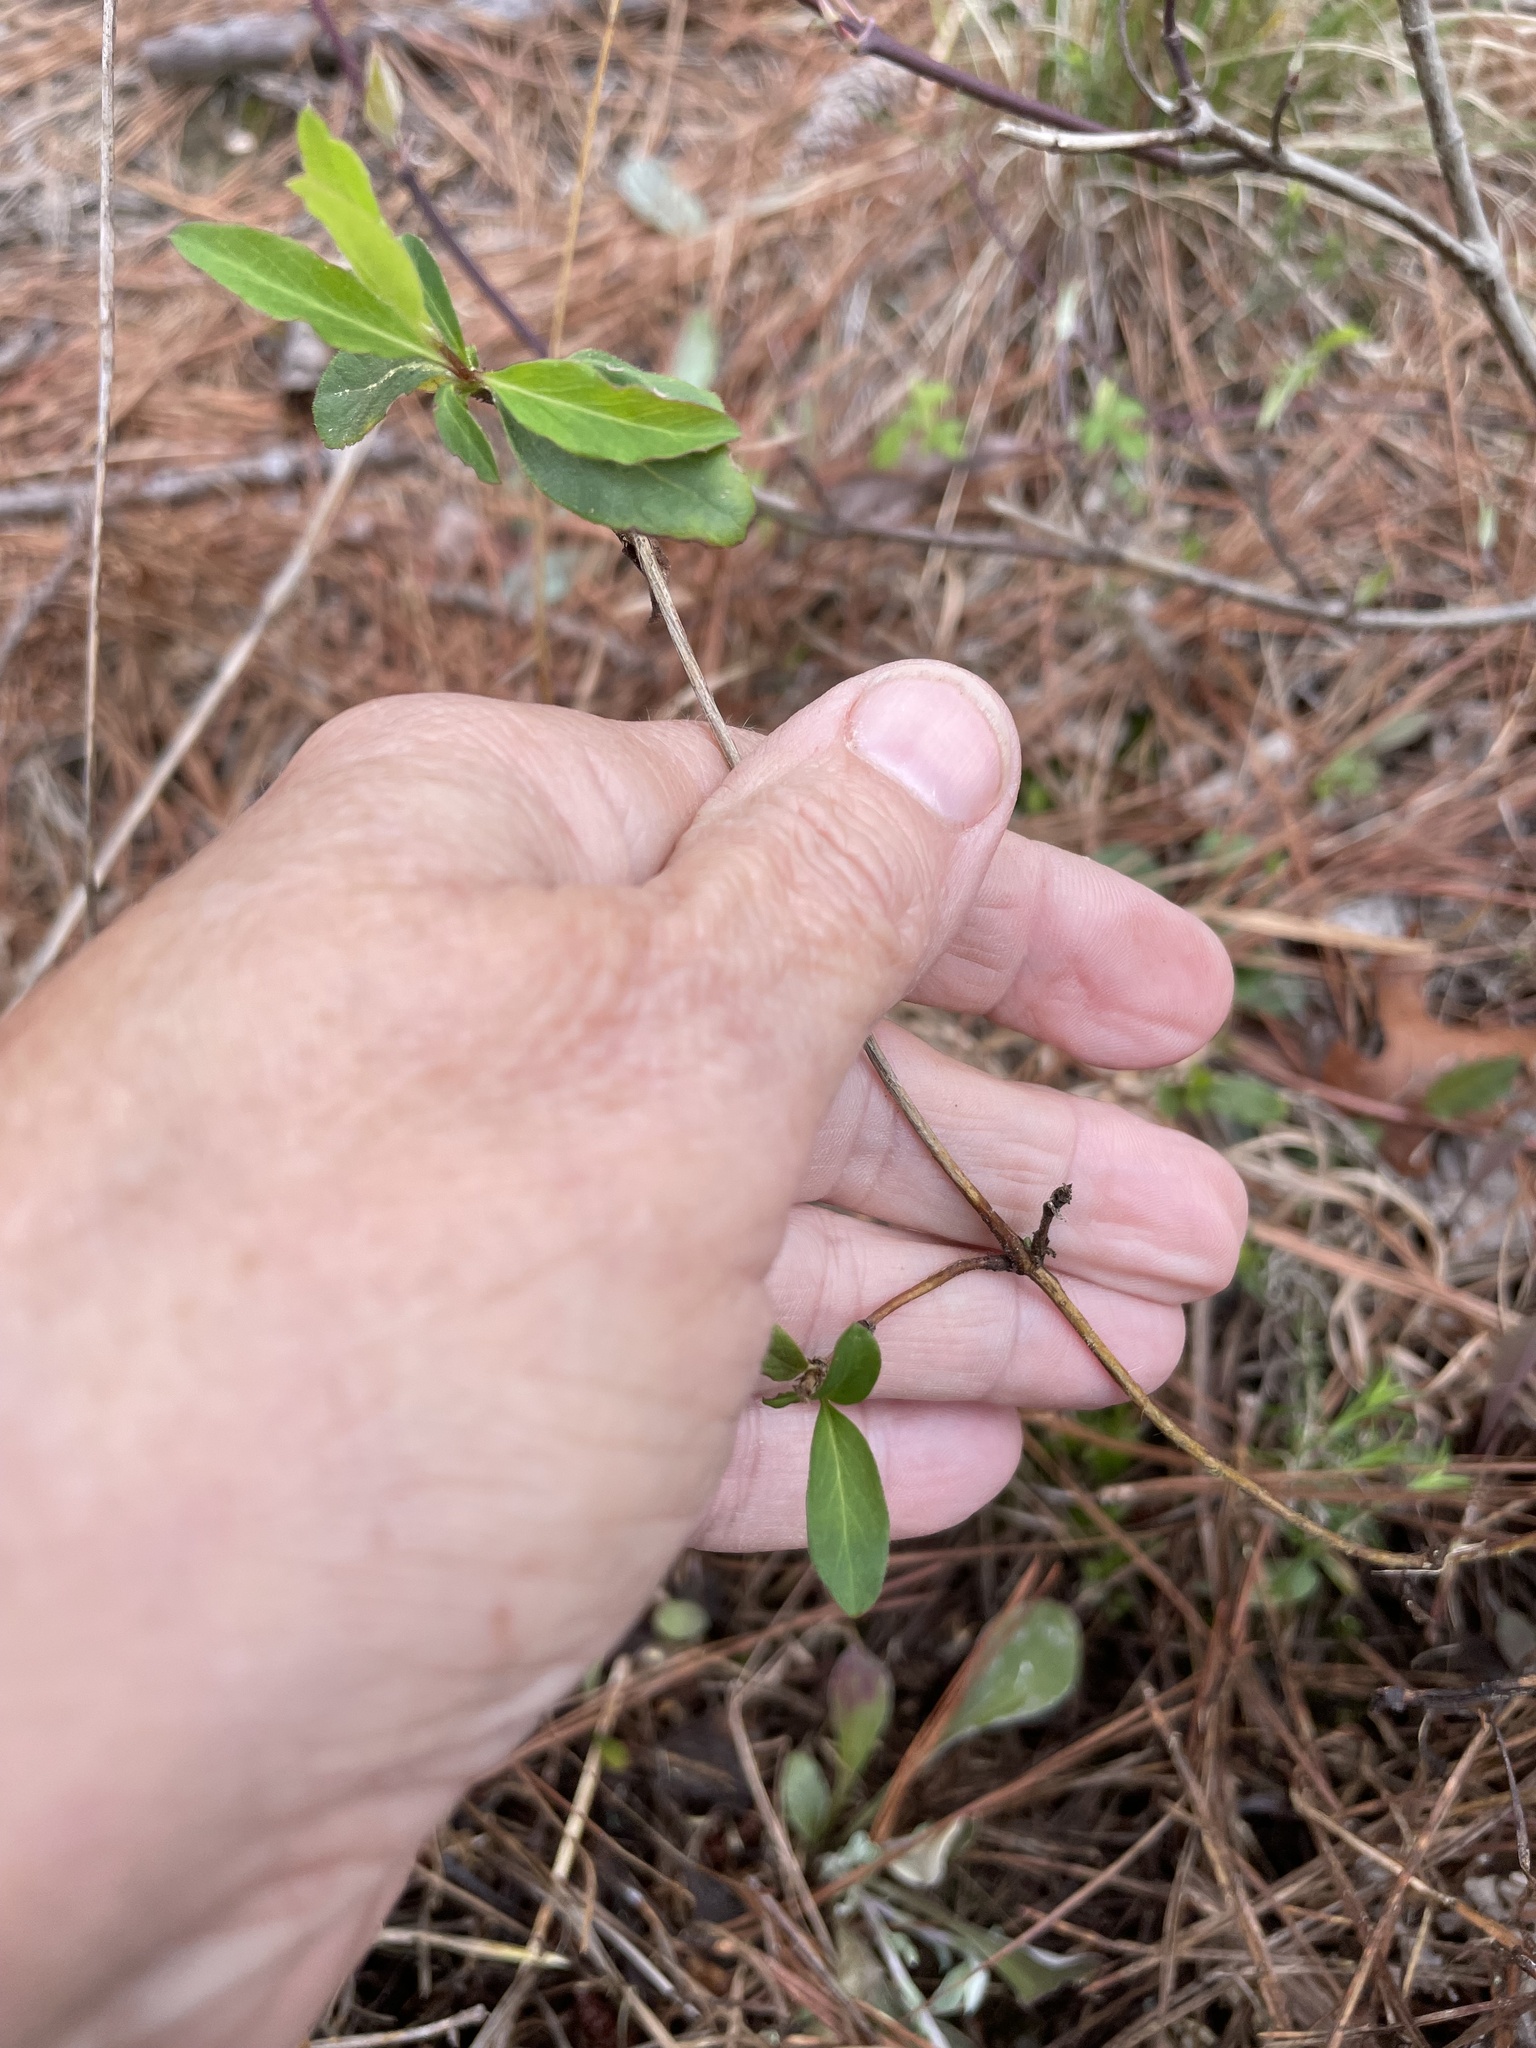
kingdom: Plantae
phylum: Tracheophyta
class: Magnoliopsida
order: Dipsacales
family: Caprifoliaceae
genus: Lonicera
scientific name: Lonicera japonica
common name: Japanese honeysuckle
